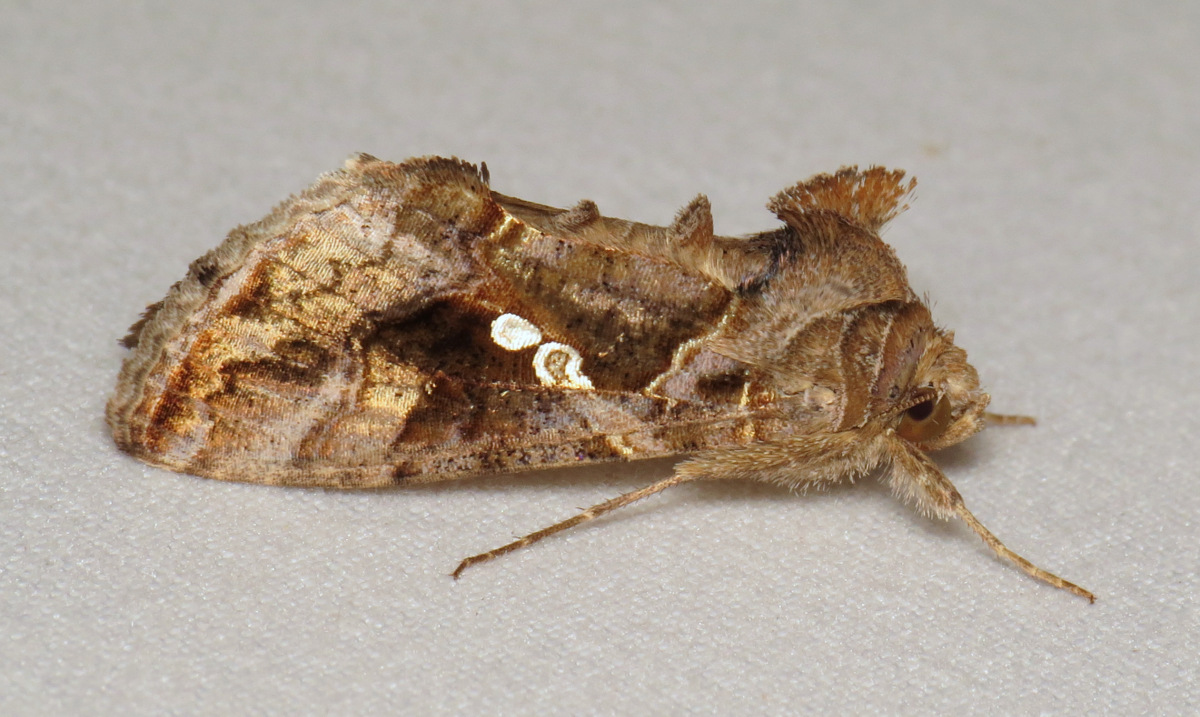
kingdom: Animalia
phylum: Arthropoda
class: Insecta
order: Lepidoptera
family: Noctuidae
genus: Chrysodeixis
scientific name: Chrysodeixis includens
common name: Cutworm moth
